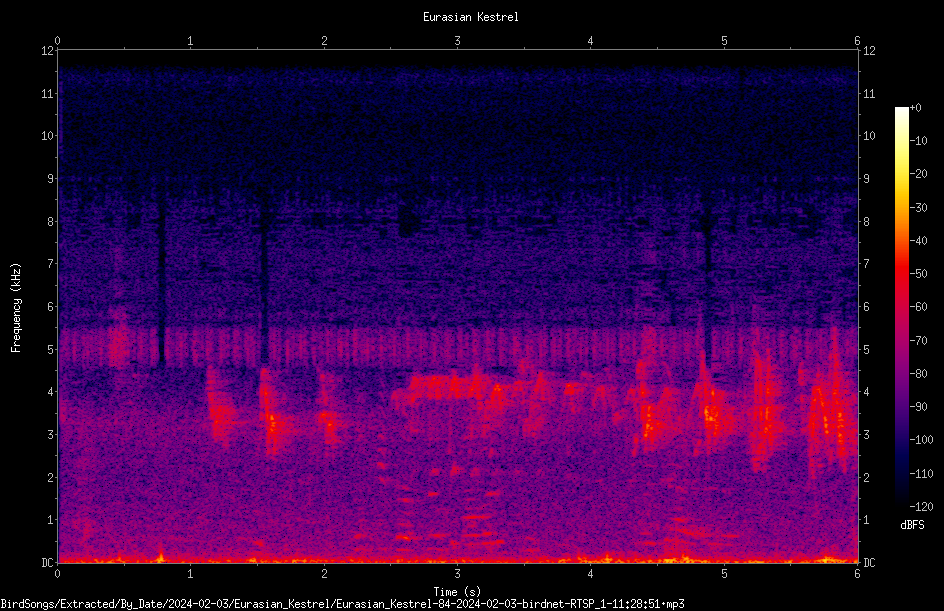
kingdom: Animalia
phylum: Chordata
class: Aves
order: Falconiformes
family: Falconidae
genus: Falco
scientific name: Falco tinnunculus
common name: Common kestrel
